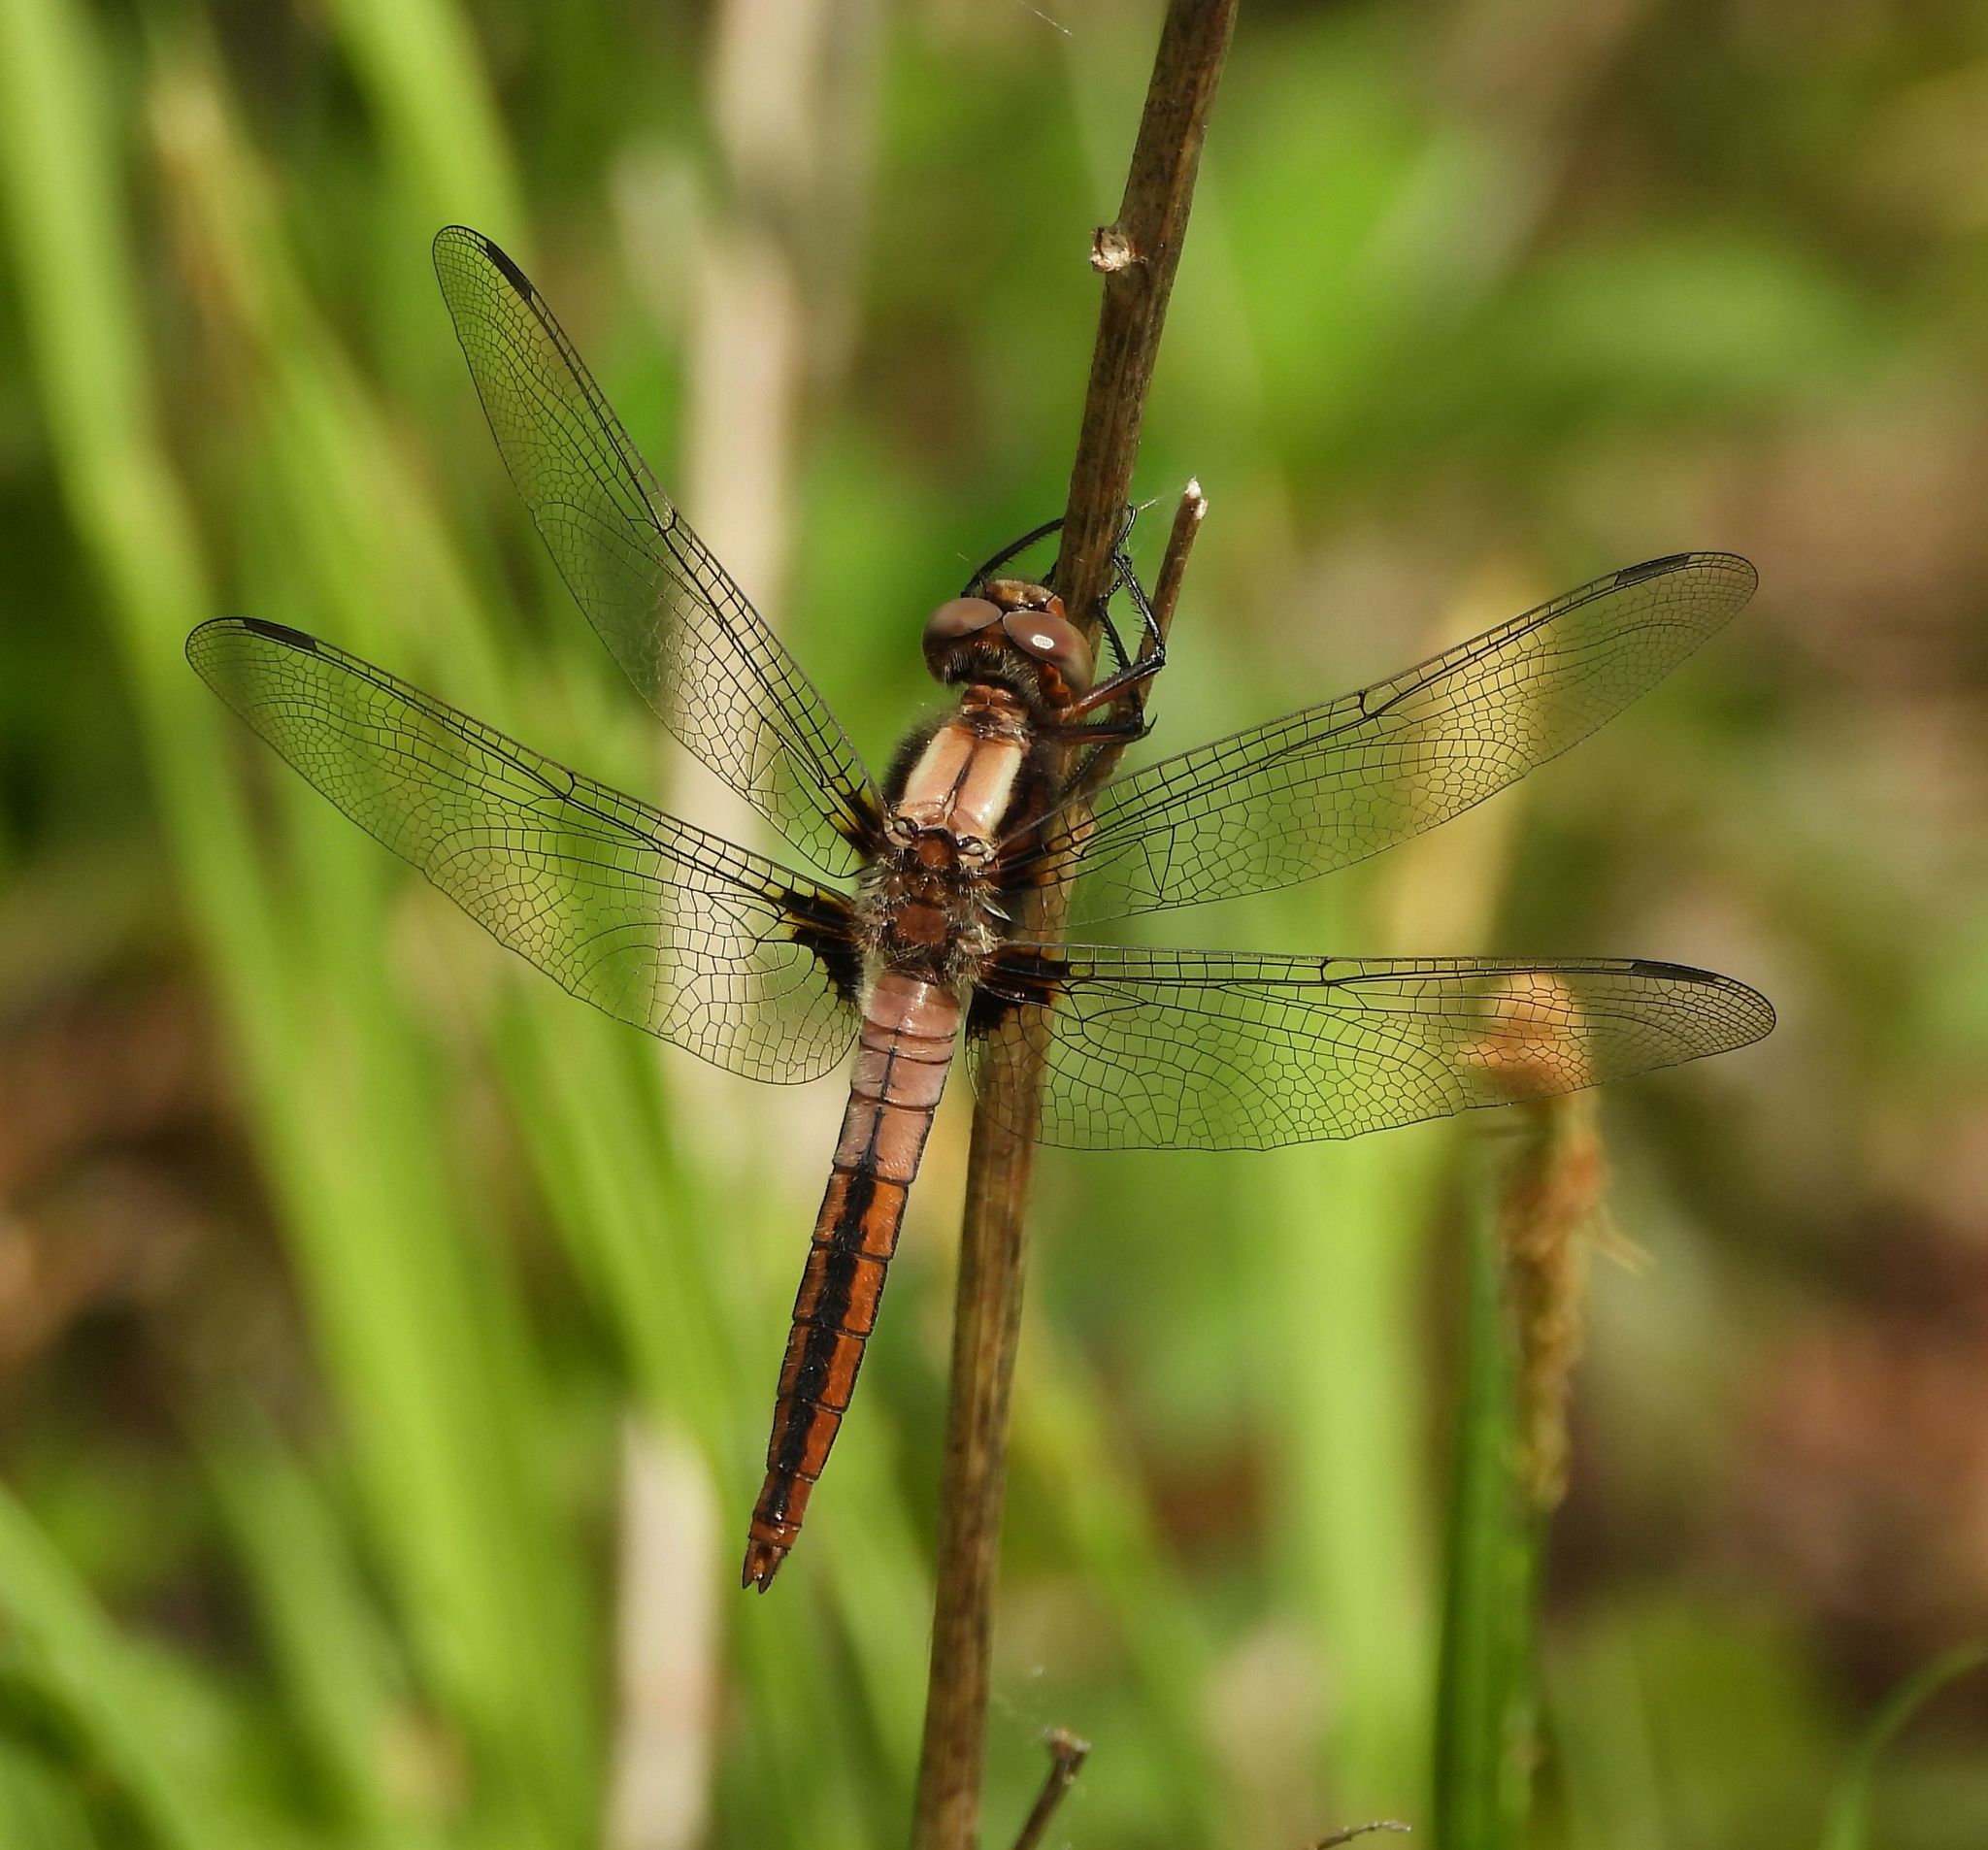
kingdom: Animalia
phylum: Arthropoda
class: Insecta
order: Odonata
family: Libellulidae
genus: Ladona
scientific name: Ladona julia
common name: Chalk-fronted corporal
